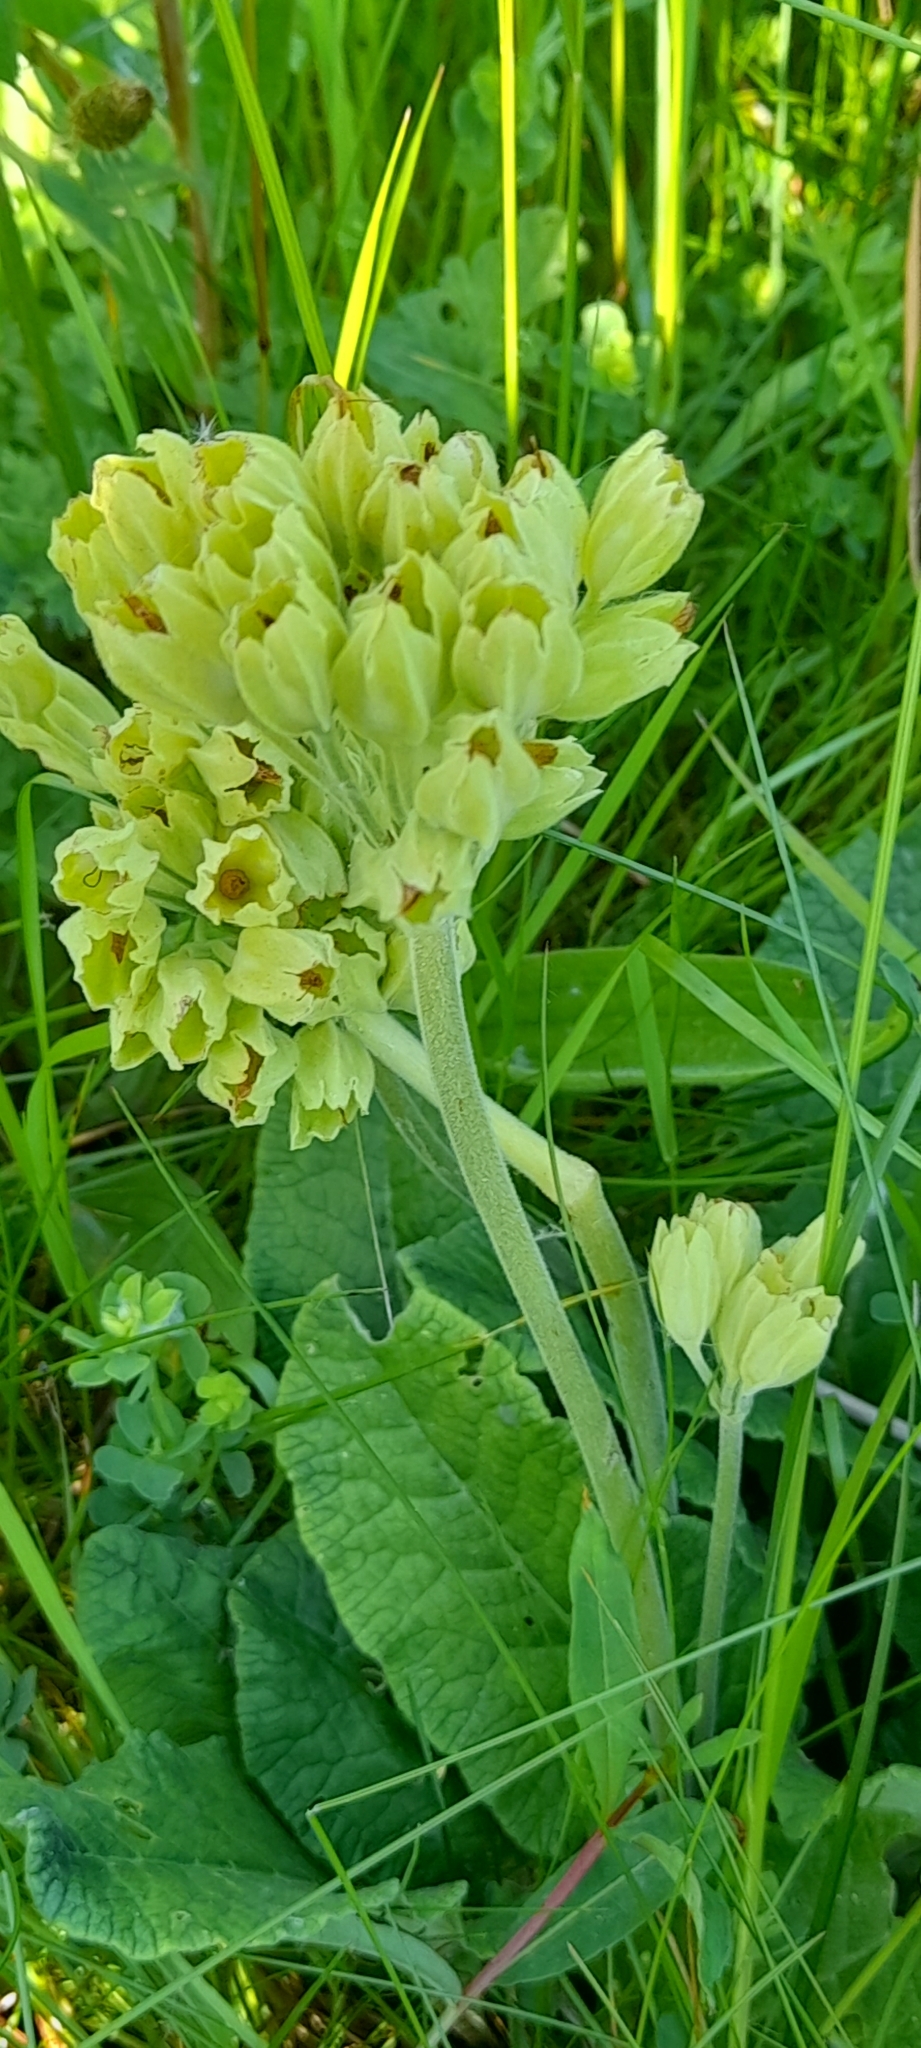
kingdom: Plantae
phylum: Tracheophyta
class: Magnoliopsida
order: Ericales
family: Primulaceae
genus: Primula
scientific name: Primula veris
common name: Cowslip
